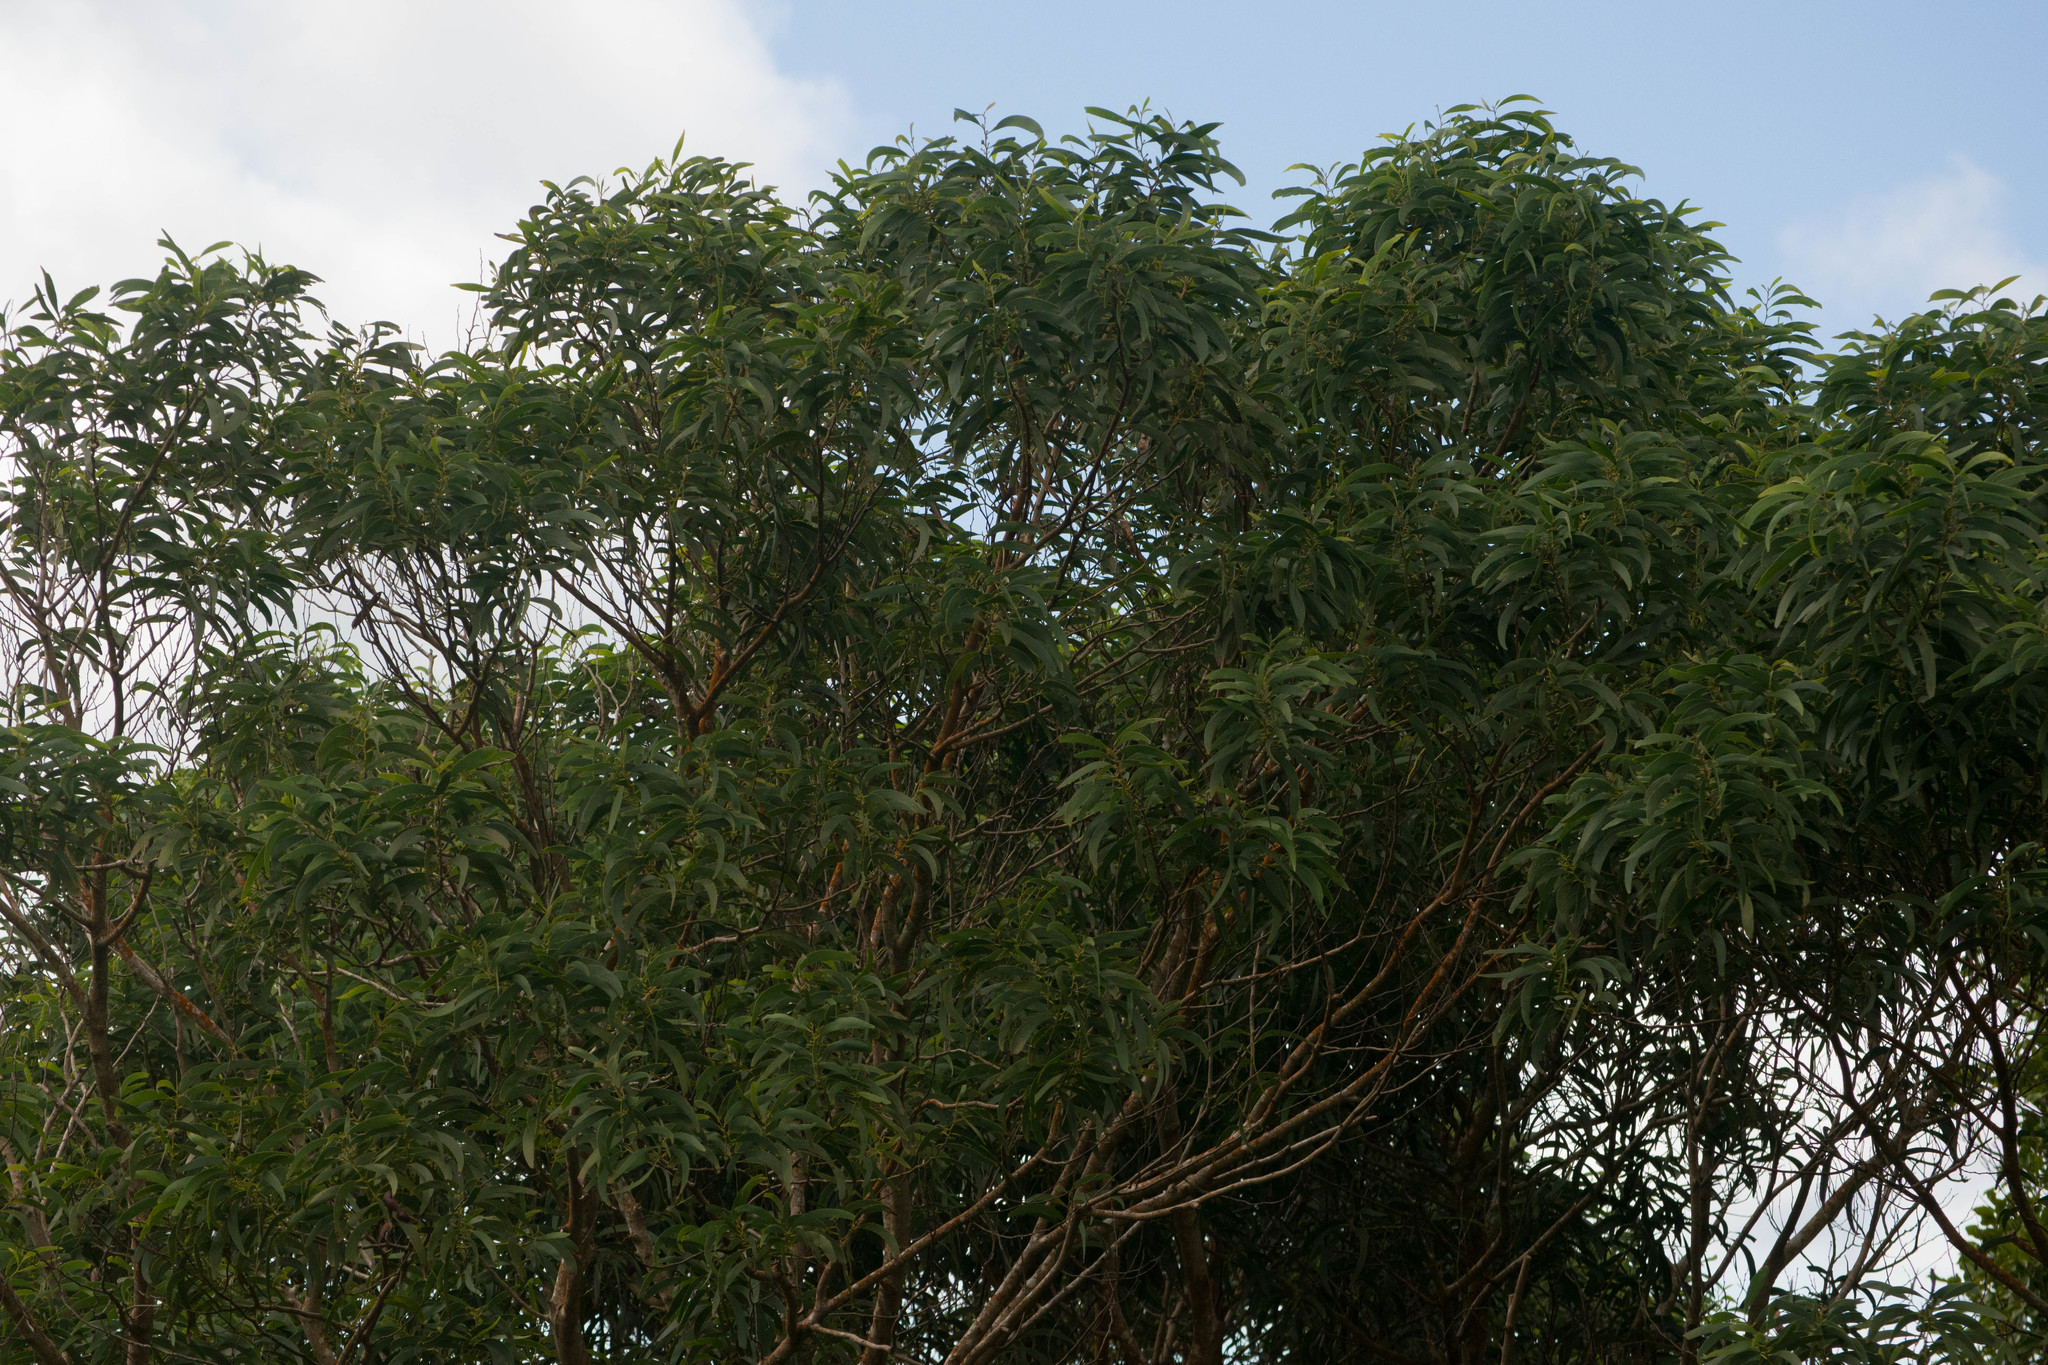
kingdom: Plantae
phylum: Tracheophyta
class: Magnoliopsida
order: Fabales
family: Fabaceae
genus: Acacia
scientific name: Acacia koa
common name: Gray koa
